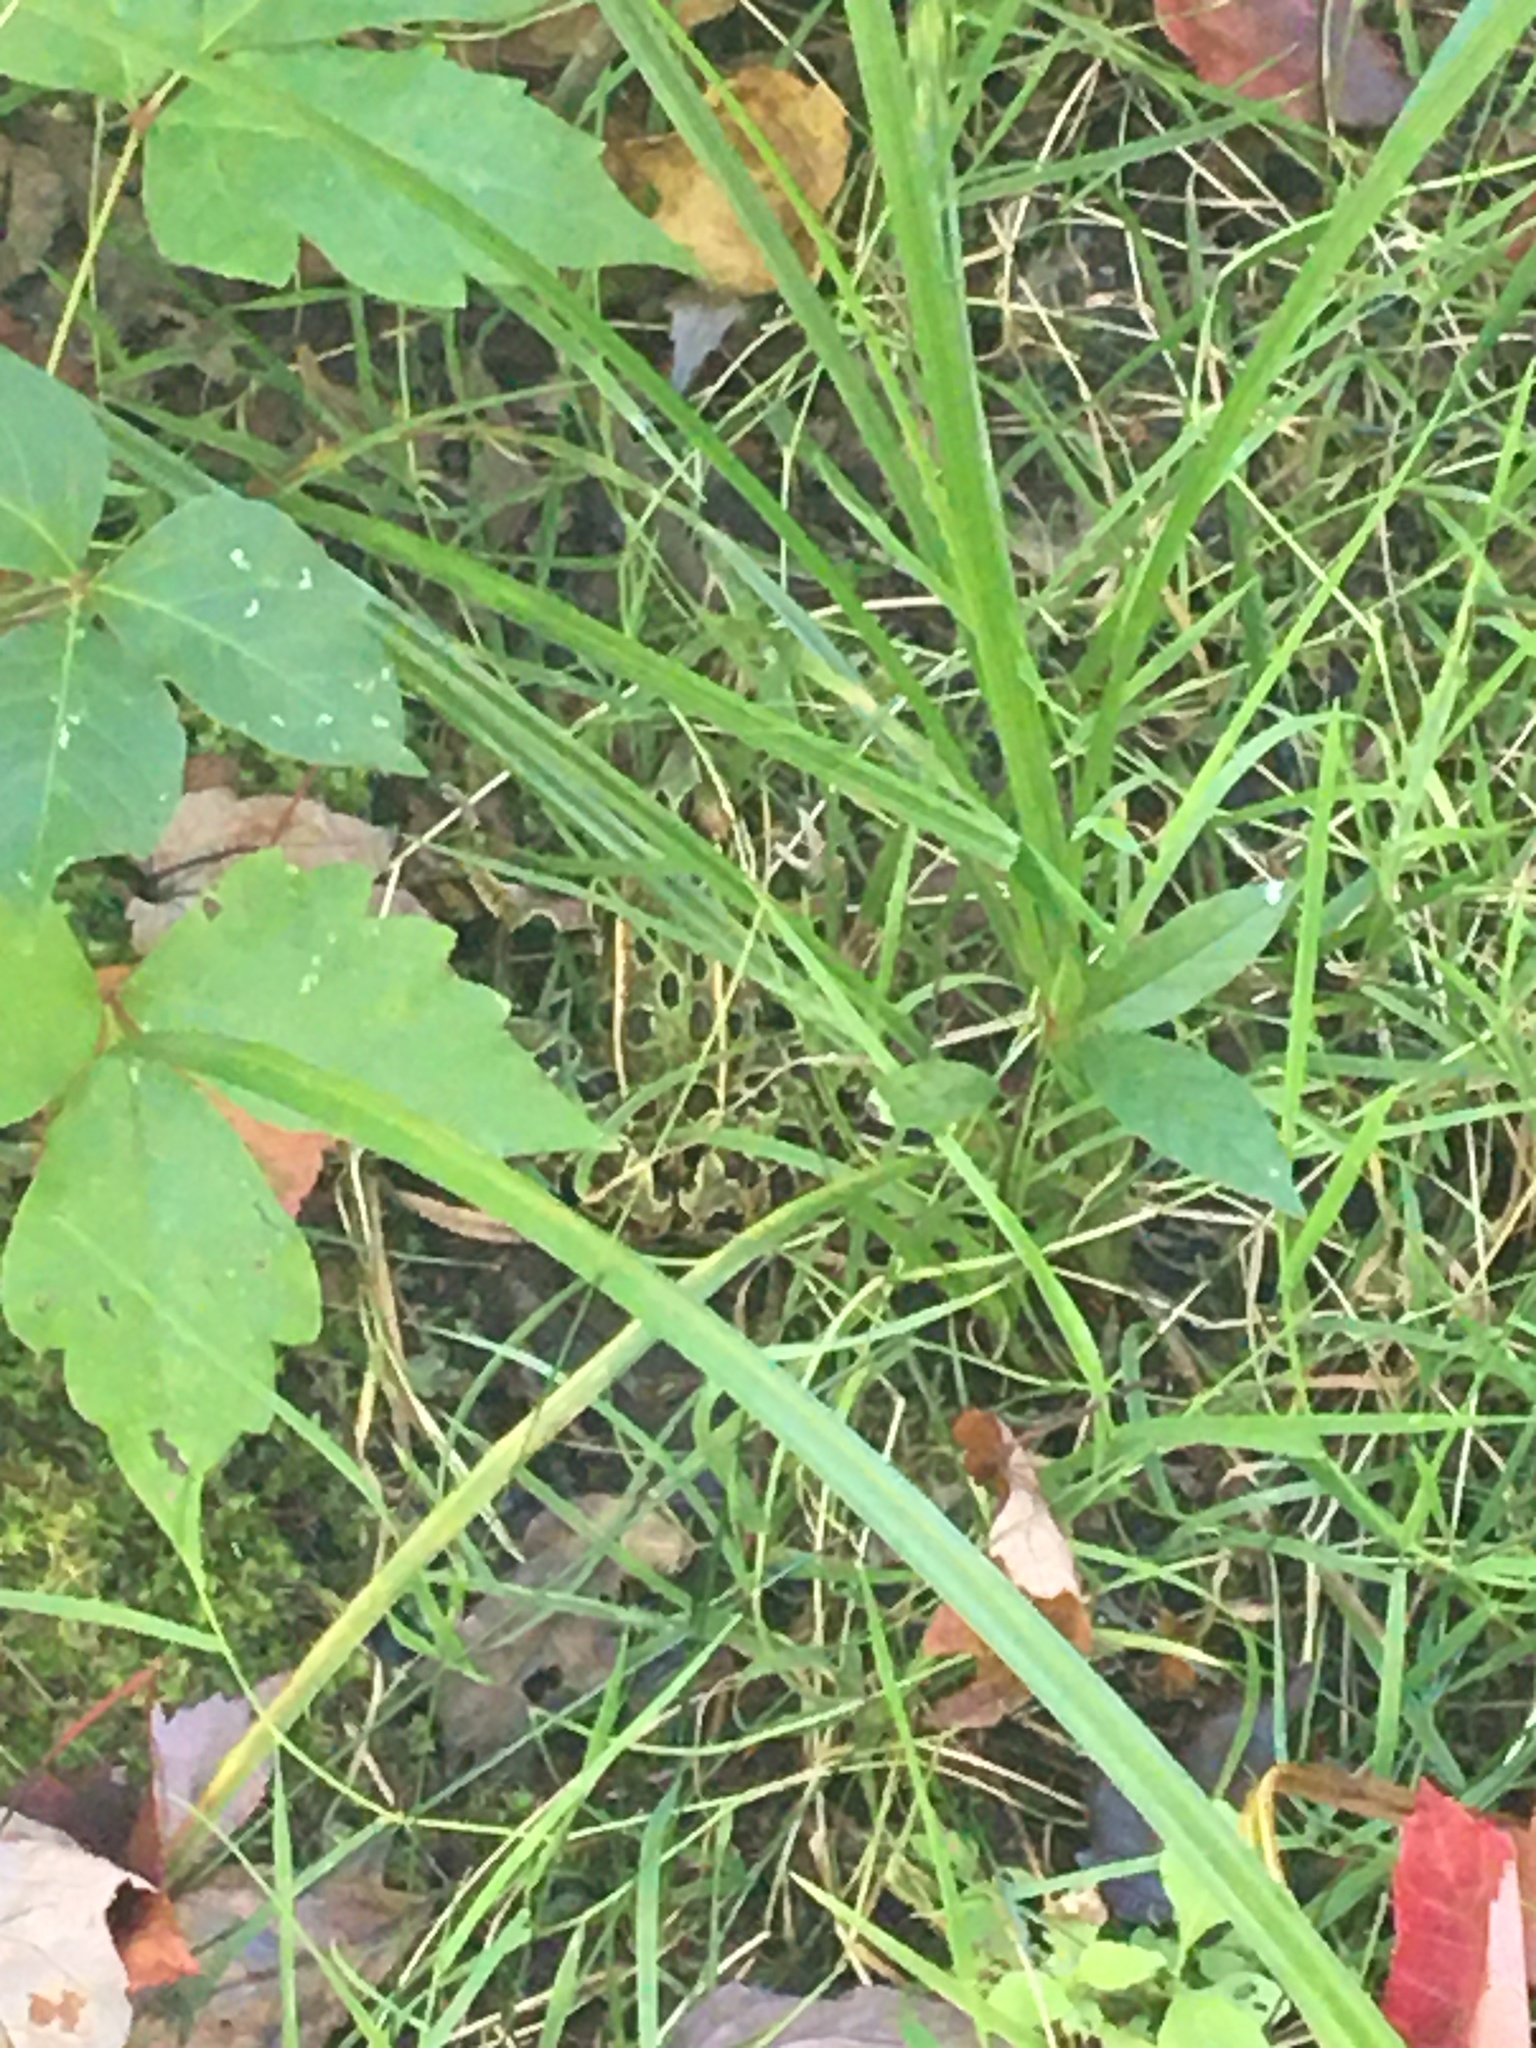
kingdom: Animalia
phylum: Chordata
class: Amphibia
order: Anura
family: Ranidae
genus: Lithobates
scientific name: Lithobates pipiens
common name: Northern leopard frog
